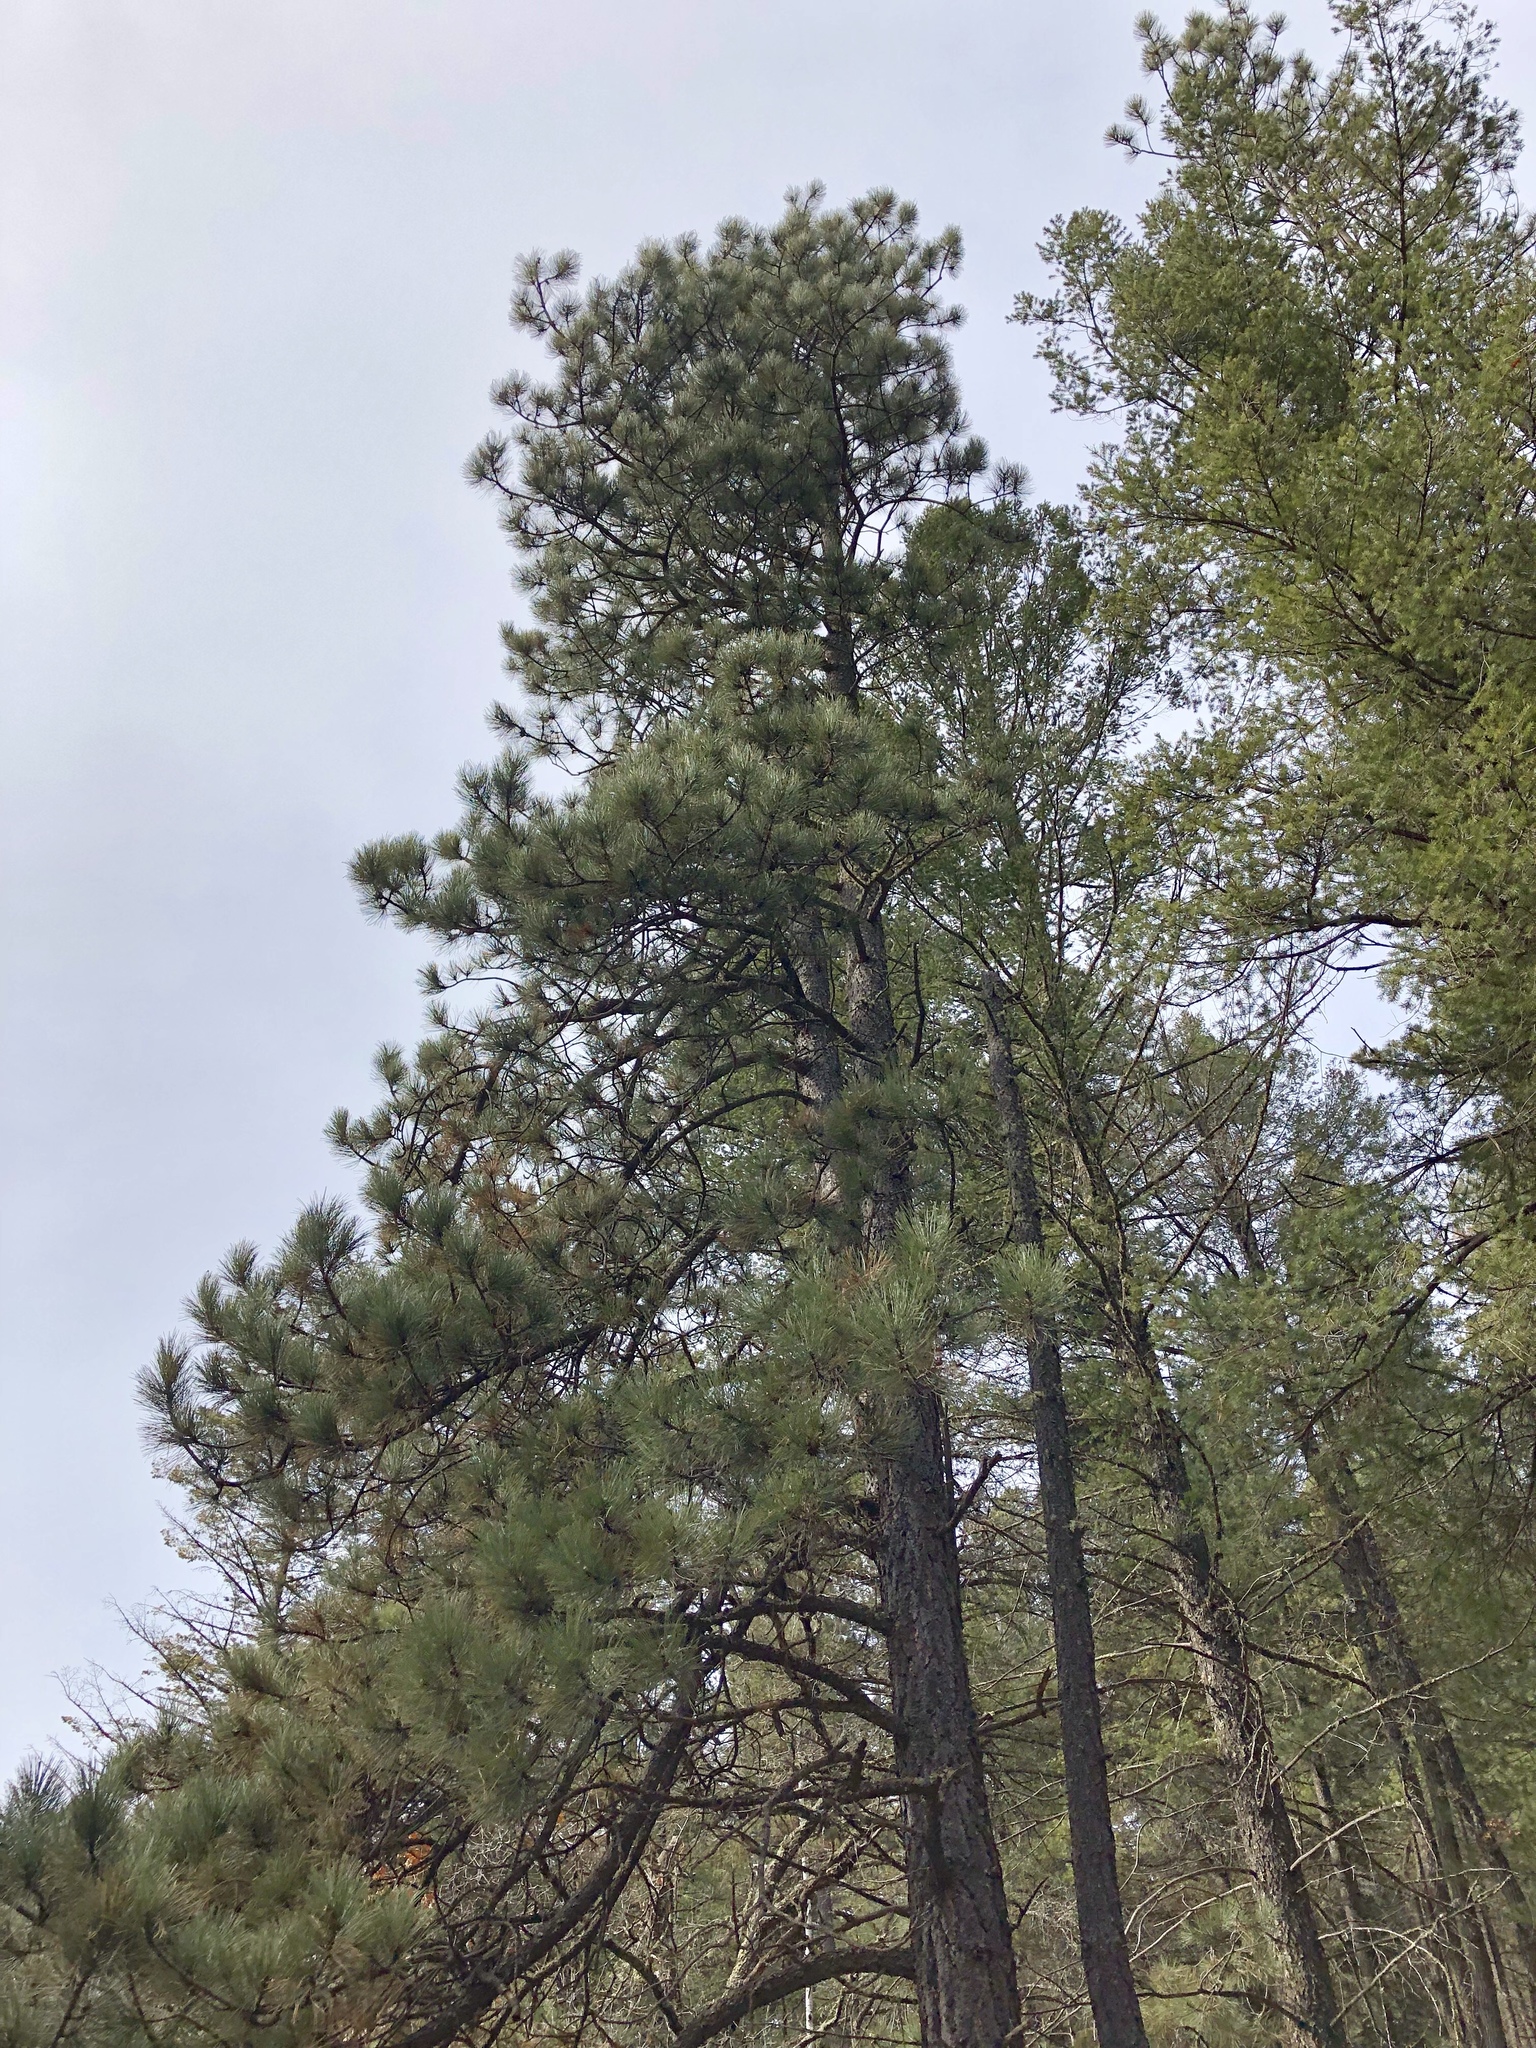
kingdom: Plantae
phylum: Tracheophyta
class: Pinopsida
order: Pinales
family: Pinaceae
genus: Pinus
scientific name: Pinus ponderosa
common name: Western yellow-pine
